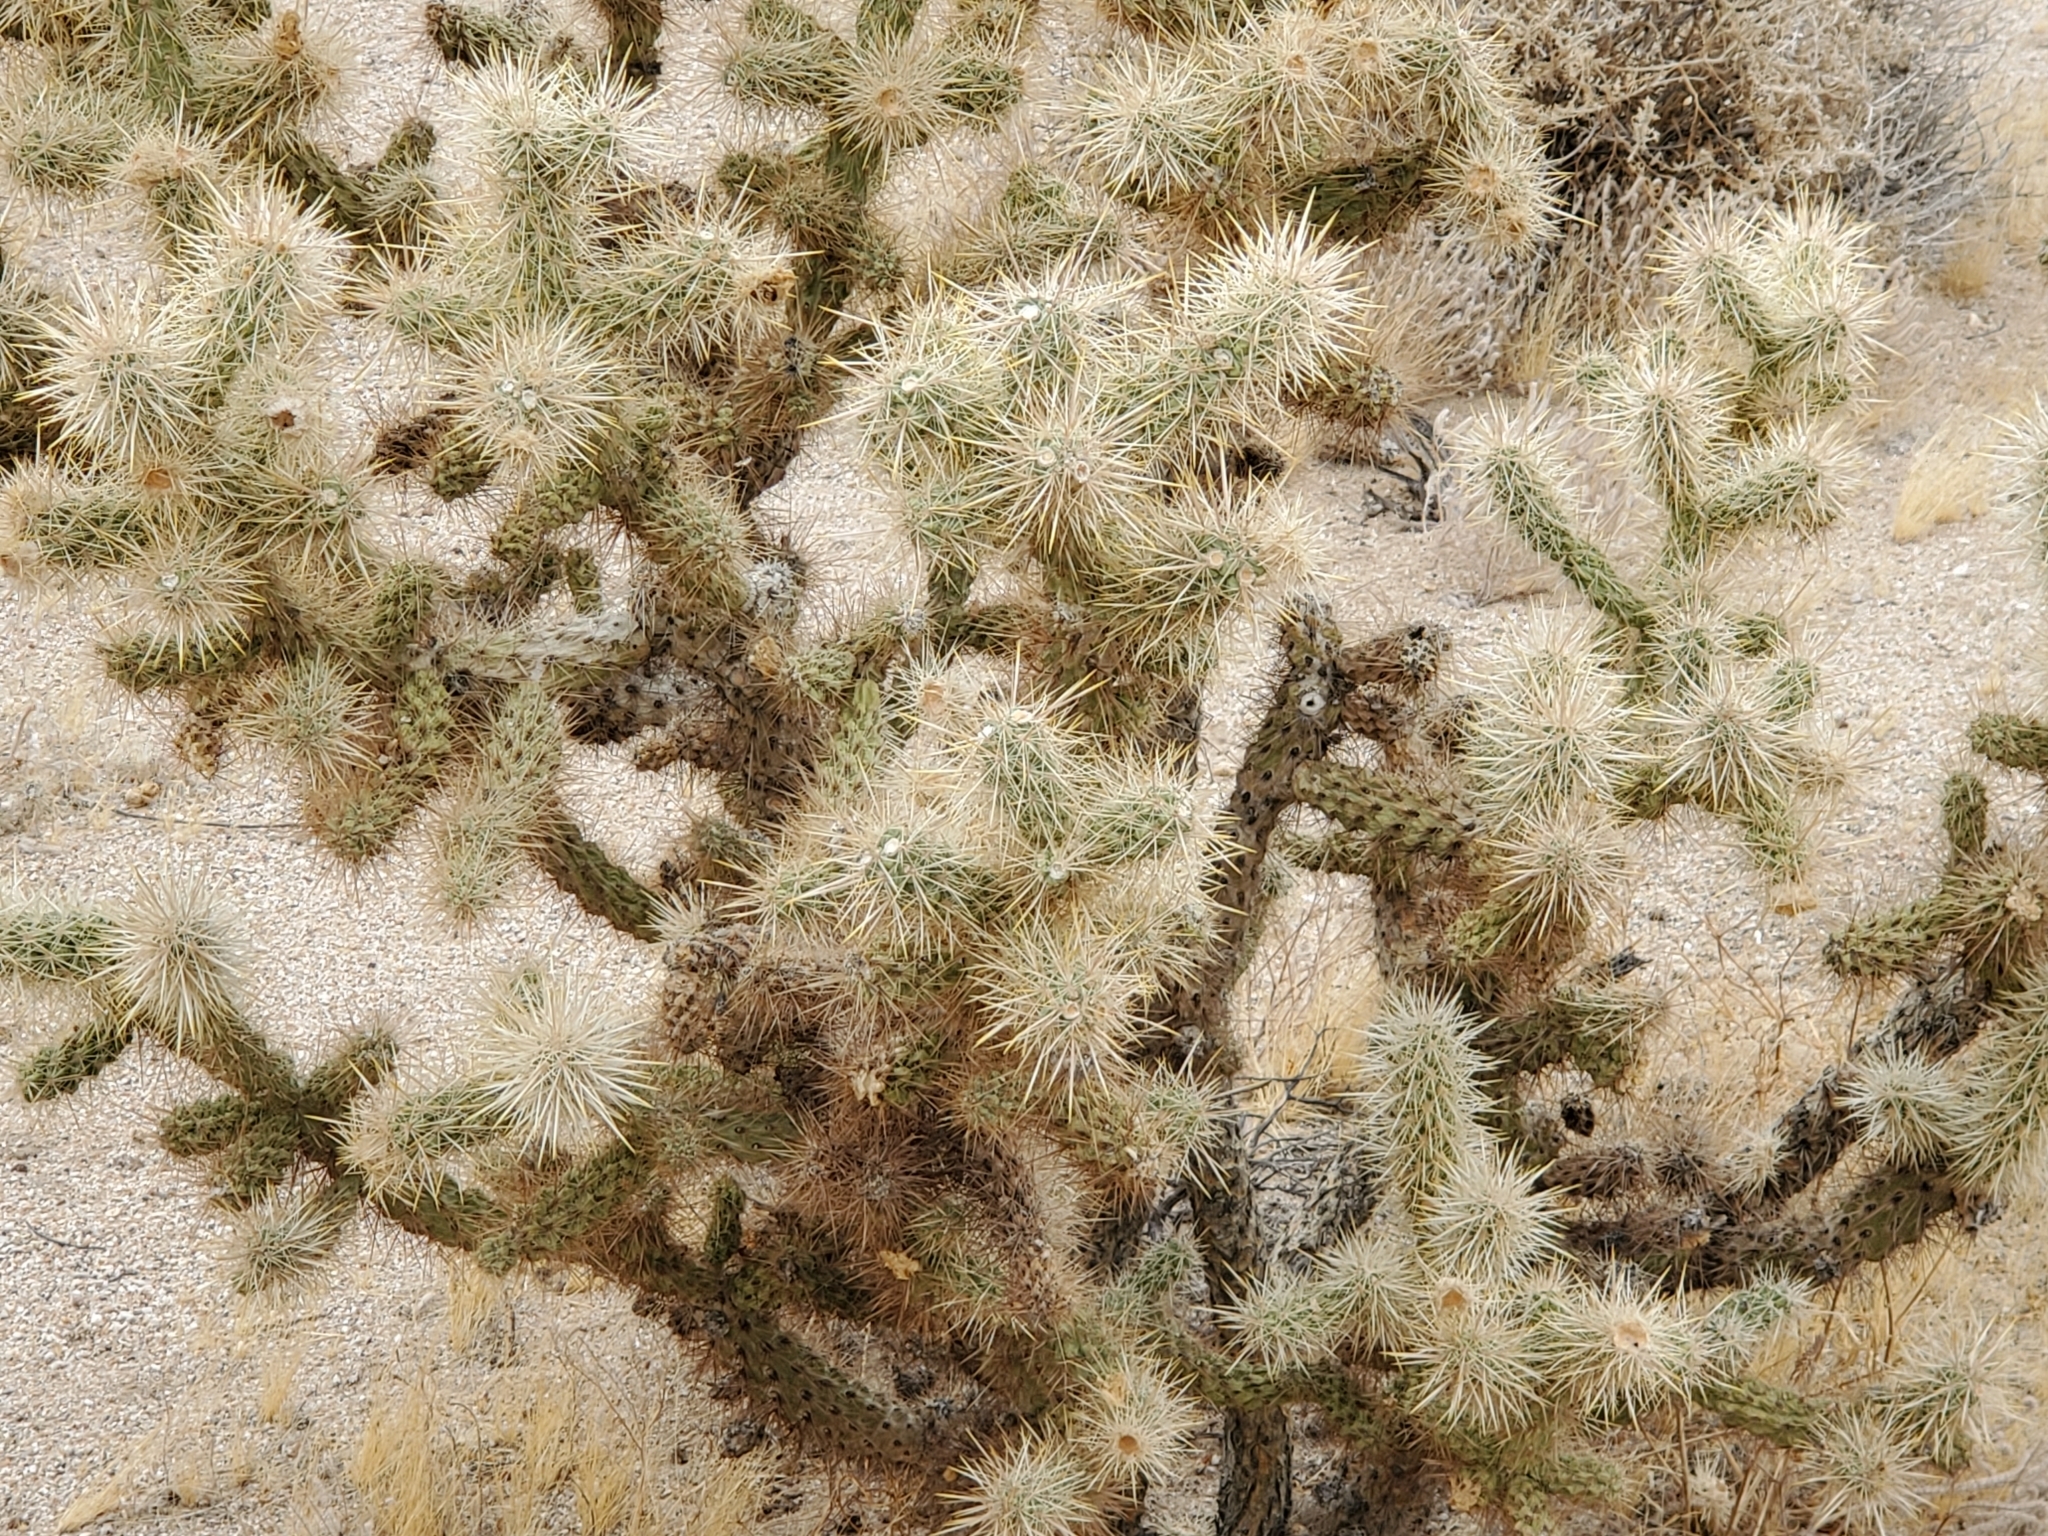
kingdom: Plantae
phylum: Tracheophyta
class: Magnoliopsida
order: Caryophyllales
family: Cactaceae
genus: Cylindropuntia
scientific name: Cylindropuntia echinocarpa
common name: Ground cholla
